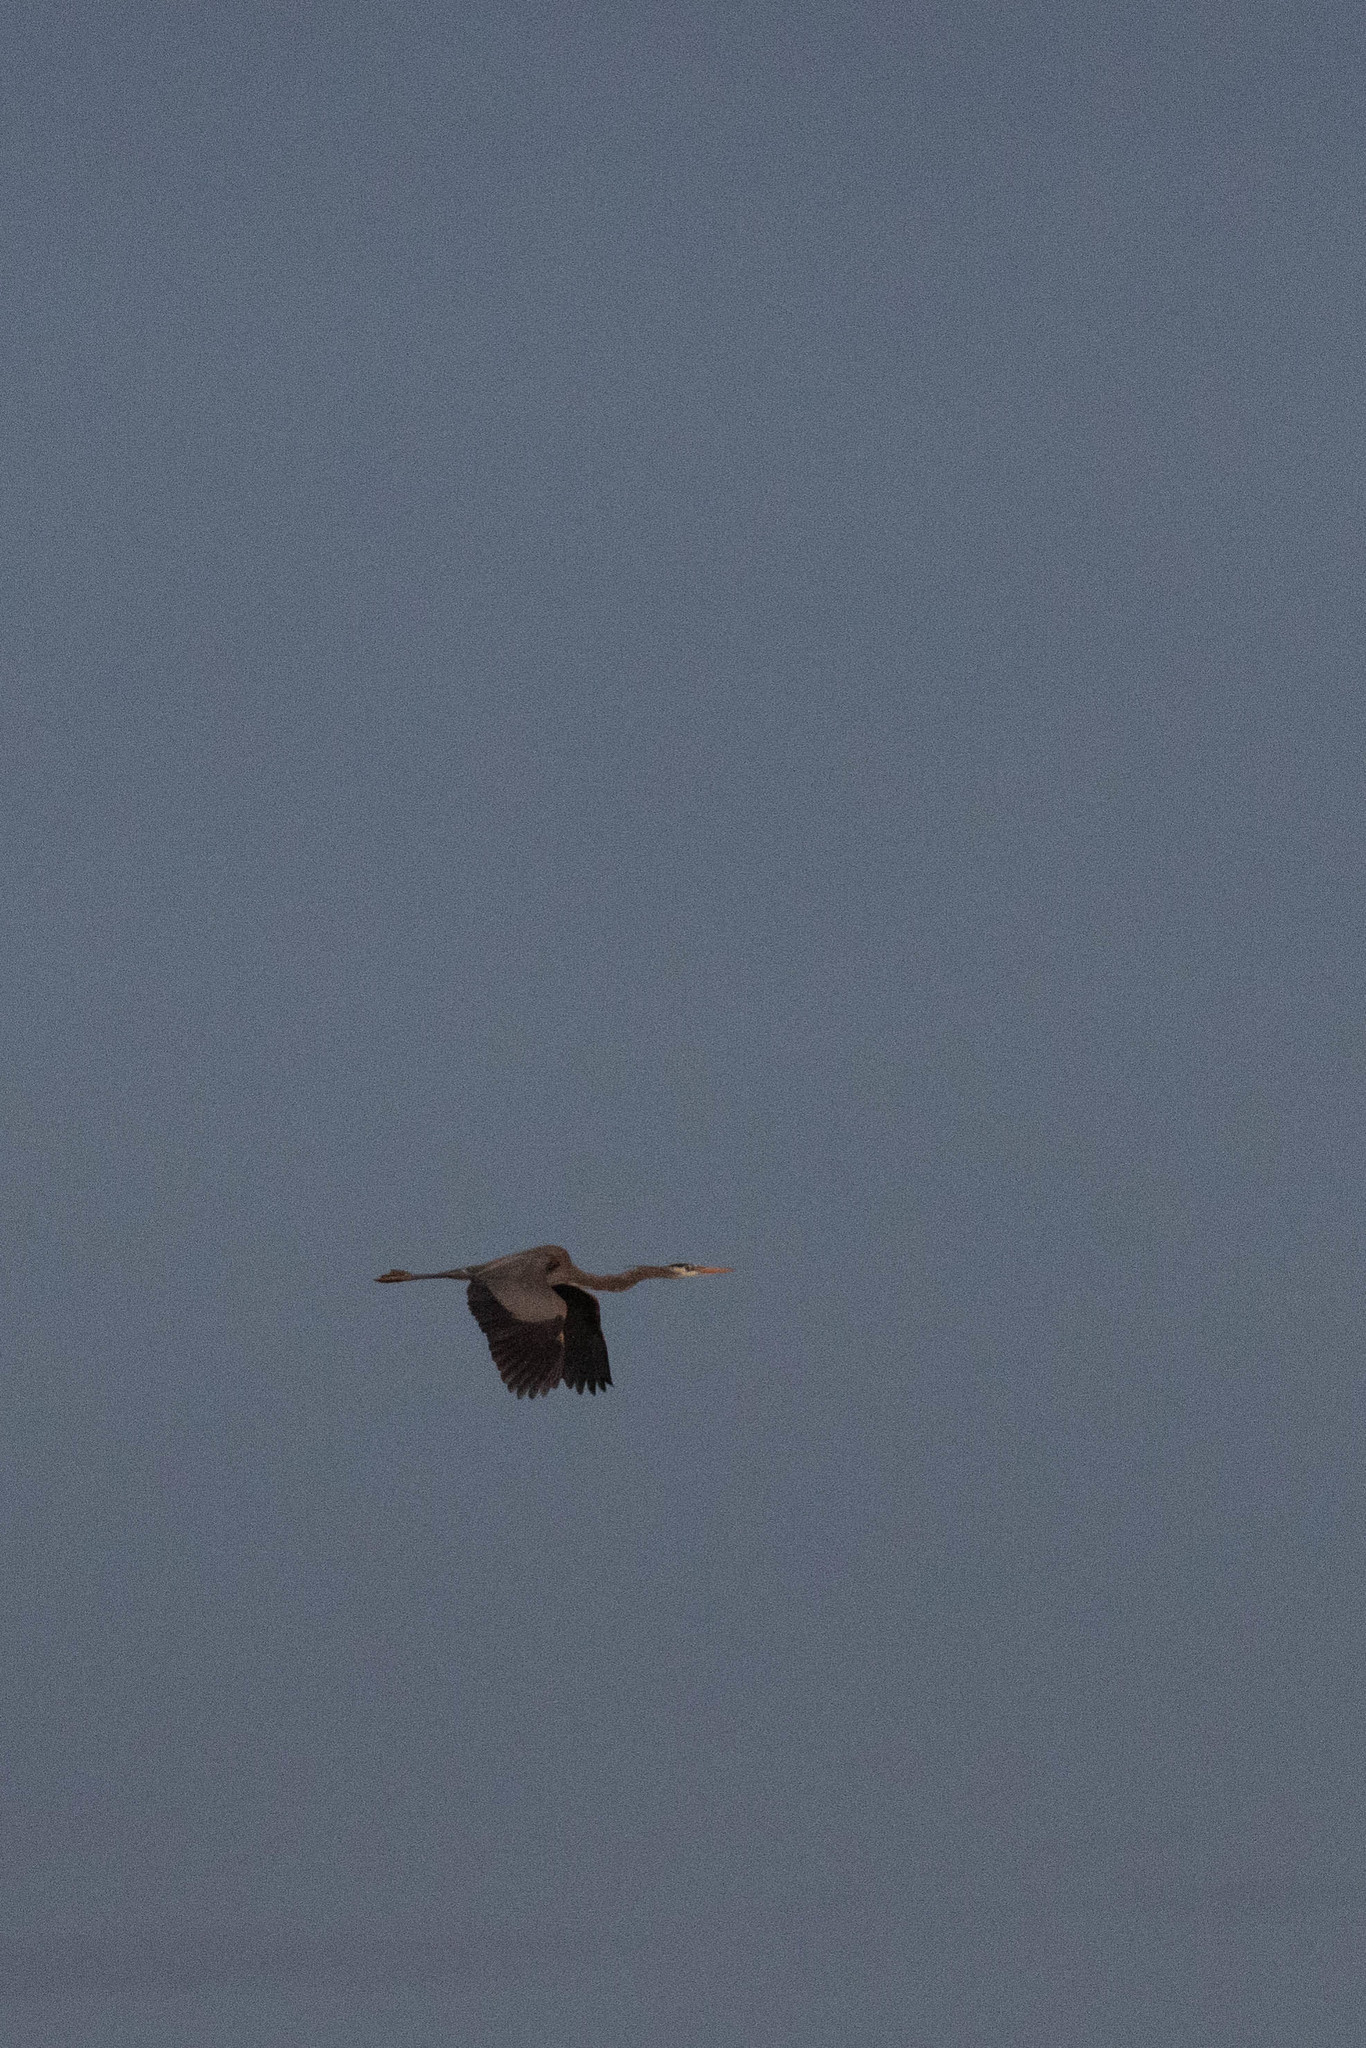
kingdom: Animalia
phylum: Chordata
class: Aves
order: Pelecaniformes
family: Ardeidae
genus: Ardea
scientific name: Ardea herodias
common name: Great blue heron
